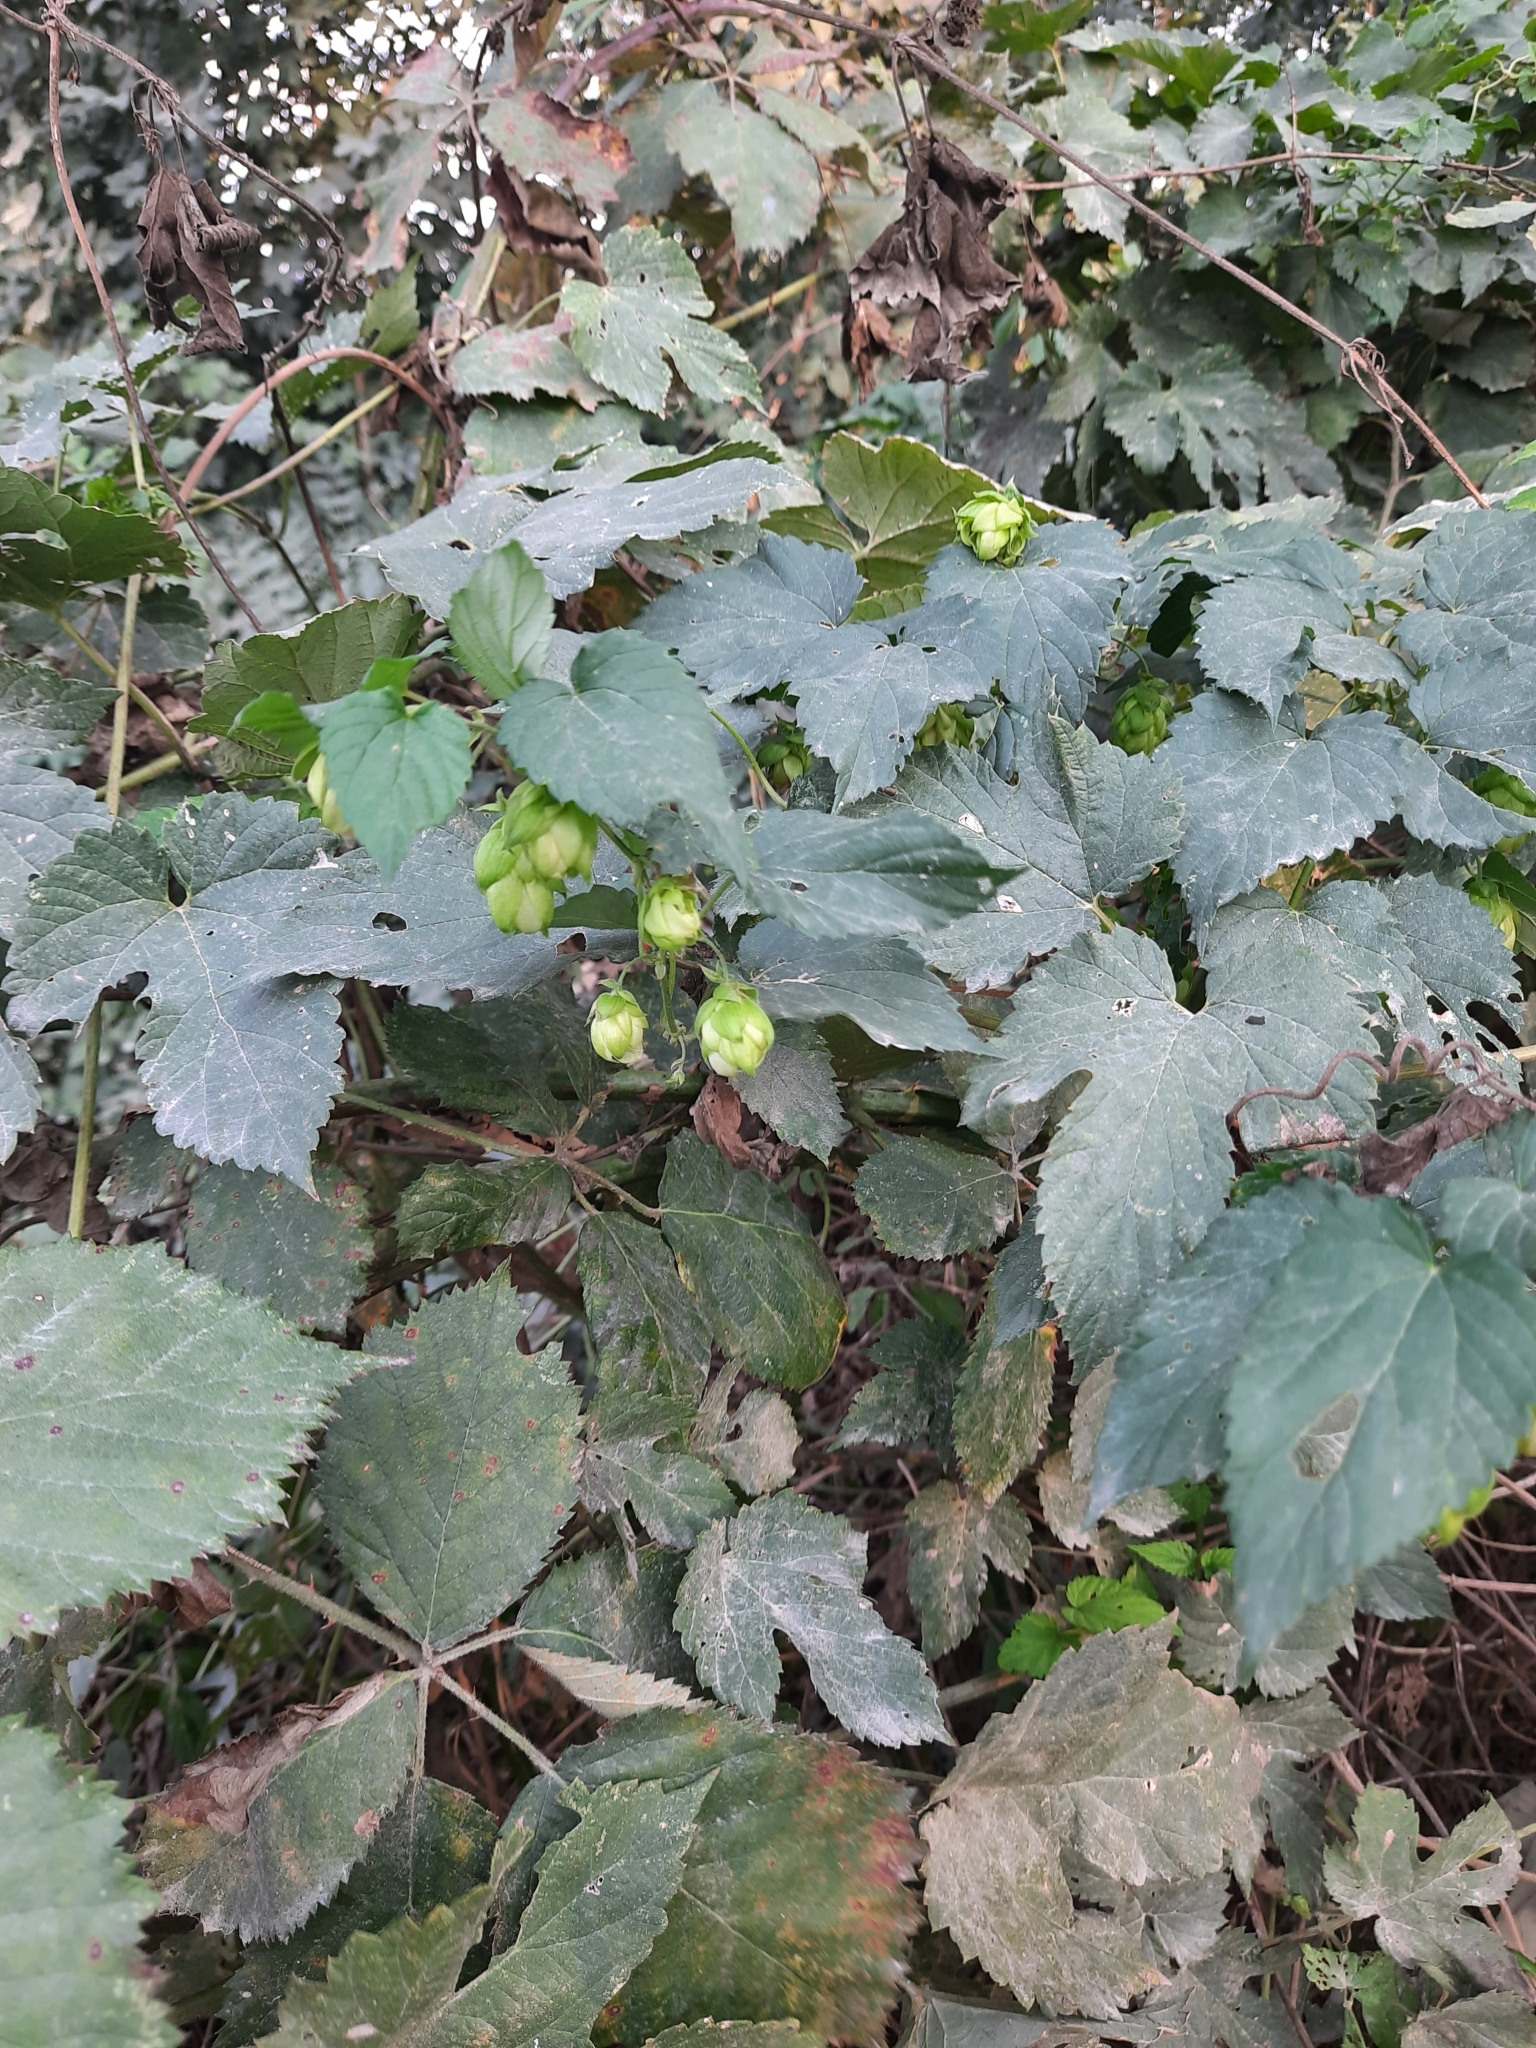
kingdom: Plantae
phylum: Tracheophyta
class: Magnoliopsida
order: Rosales
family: Cannabaceae
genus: Humulus
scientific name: Humulus lupulus
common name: Hop
